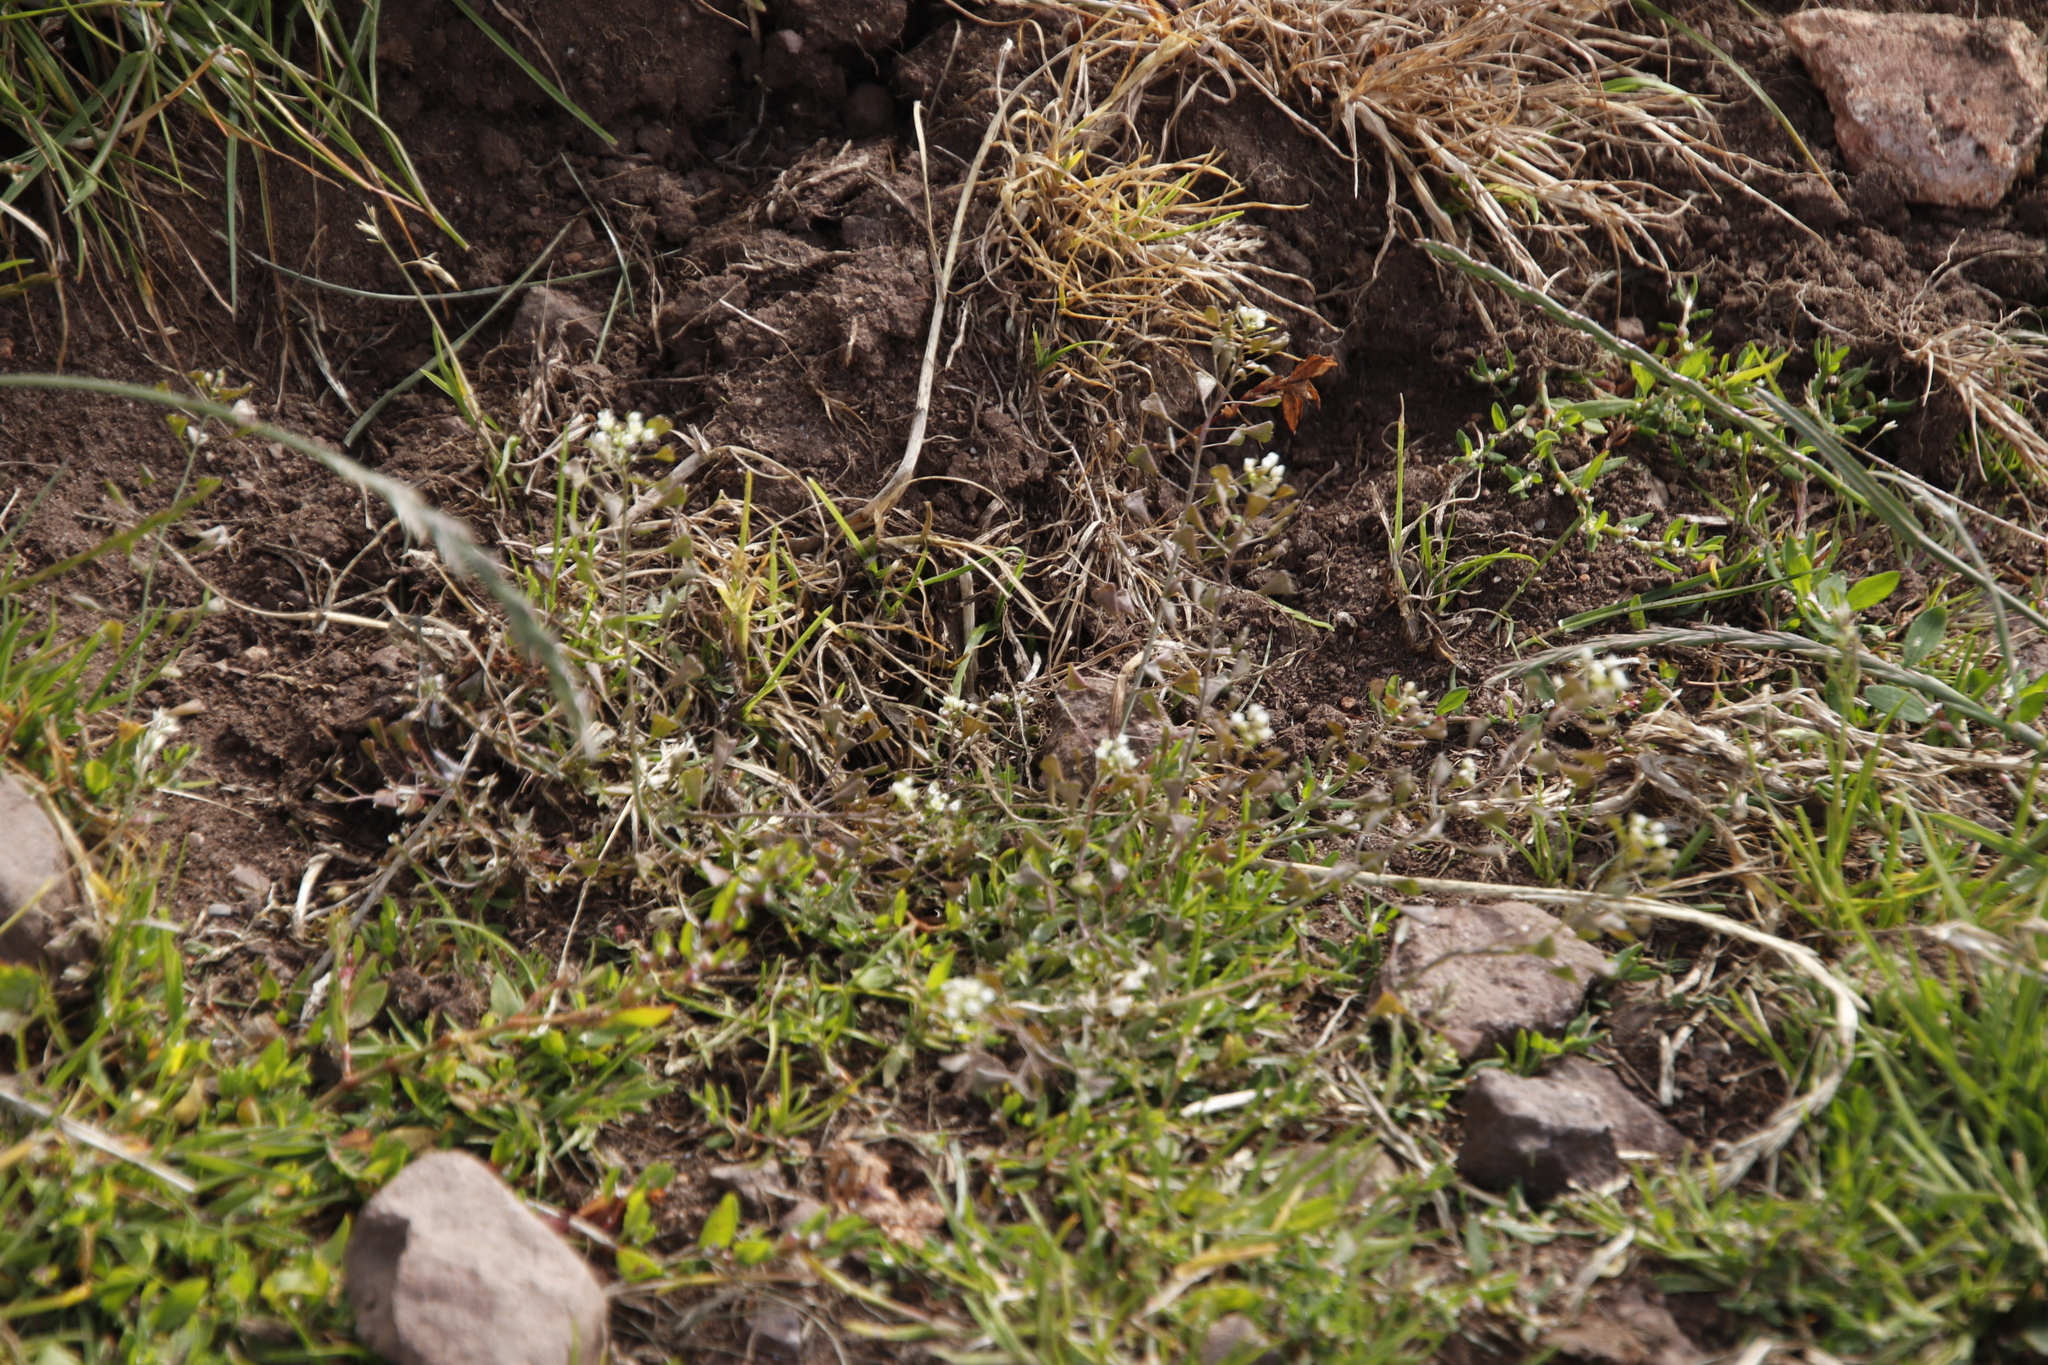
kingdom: Plantae
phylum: Tracheophyta
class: Magnoliopsida
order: Brassicales
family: Brassicaceae
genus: Capsella
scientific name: Capsella bursa-pastoris
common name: Shepherd's purse
